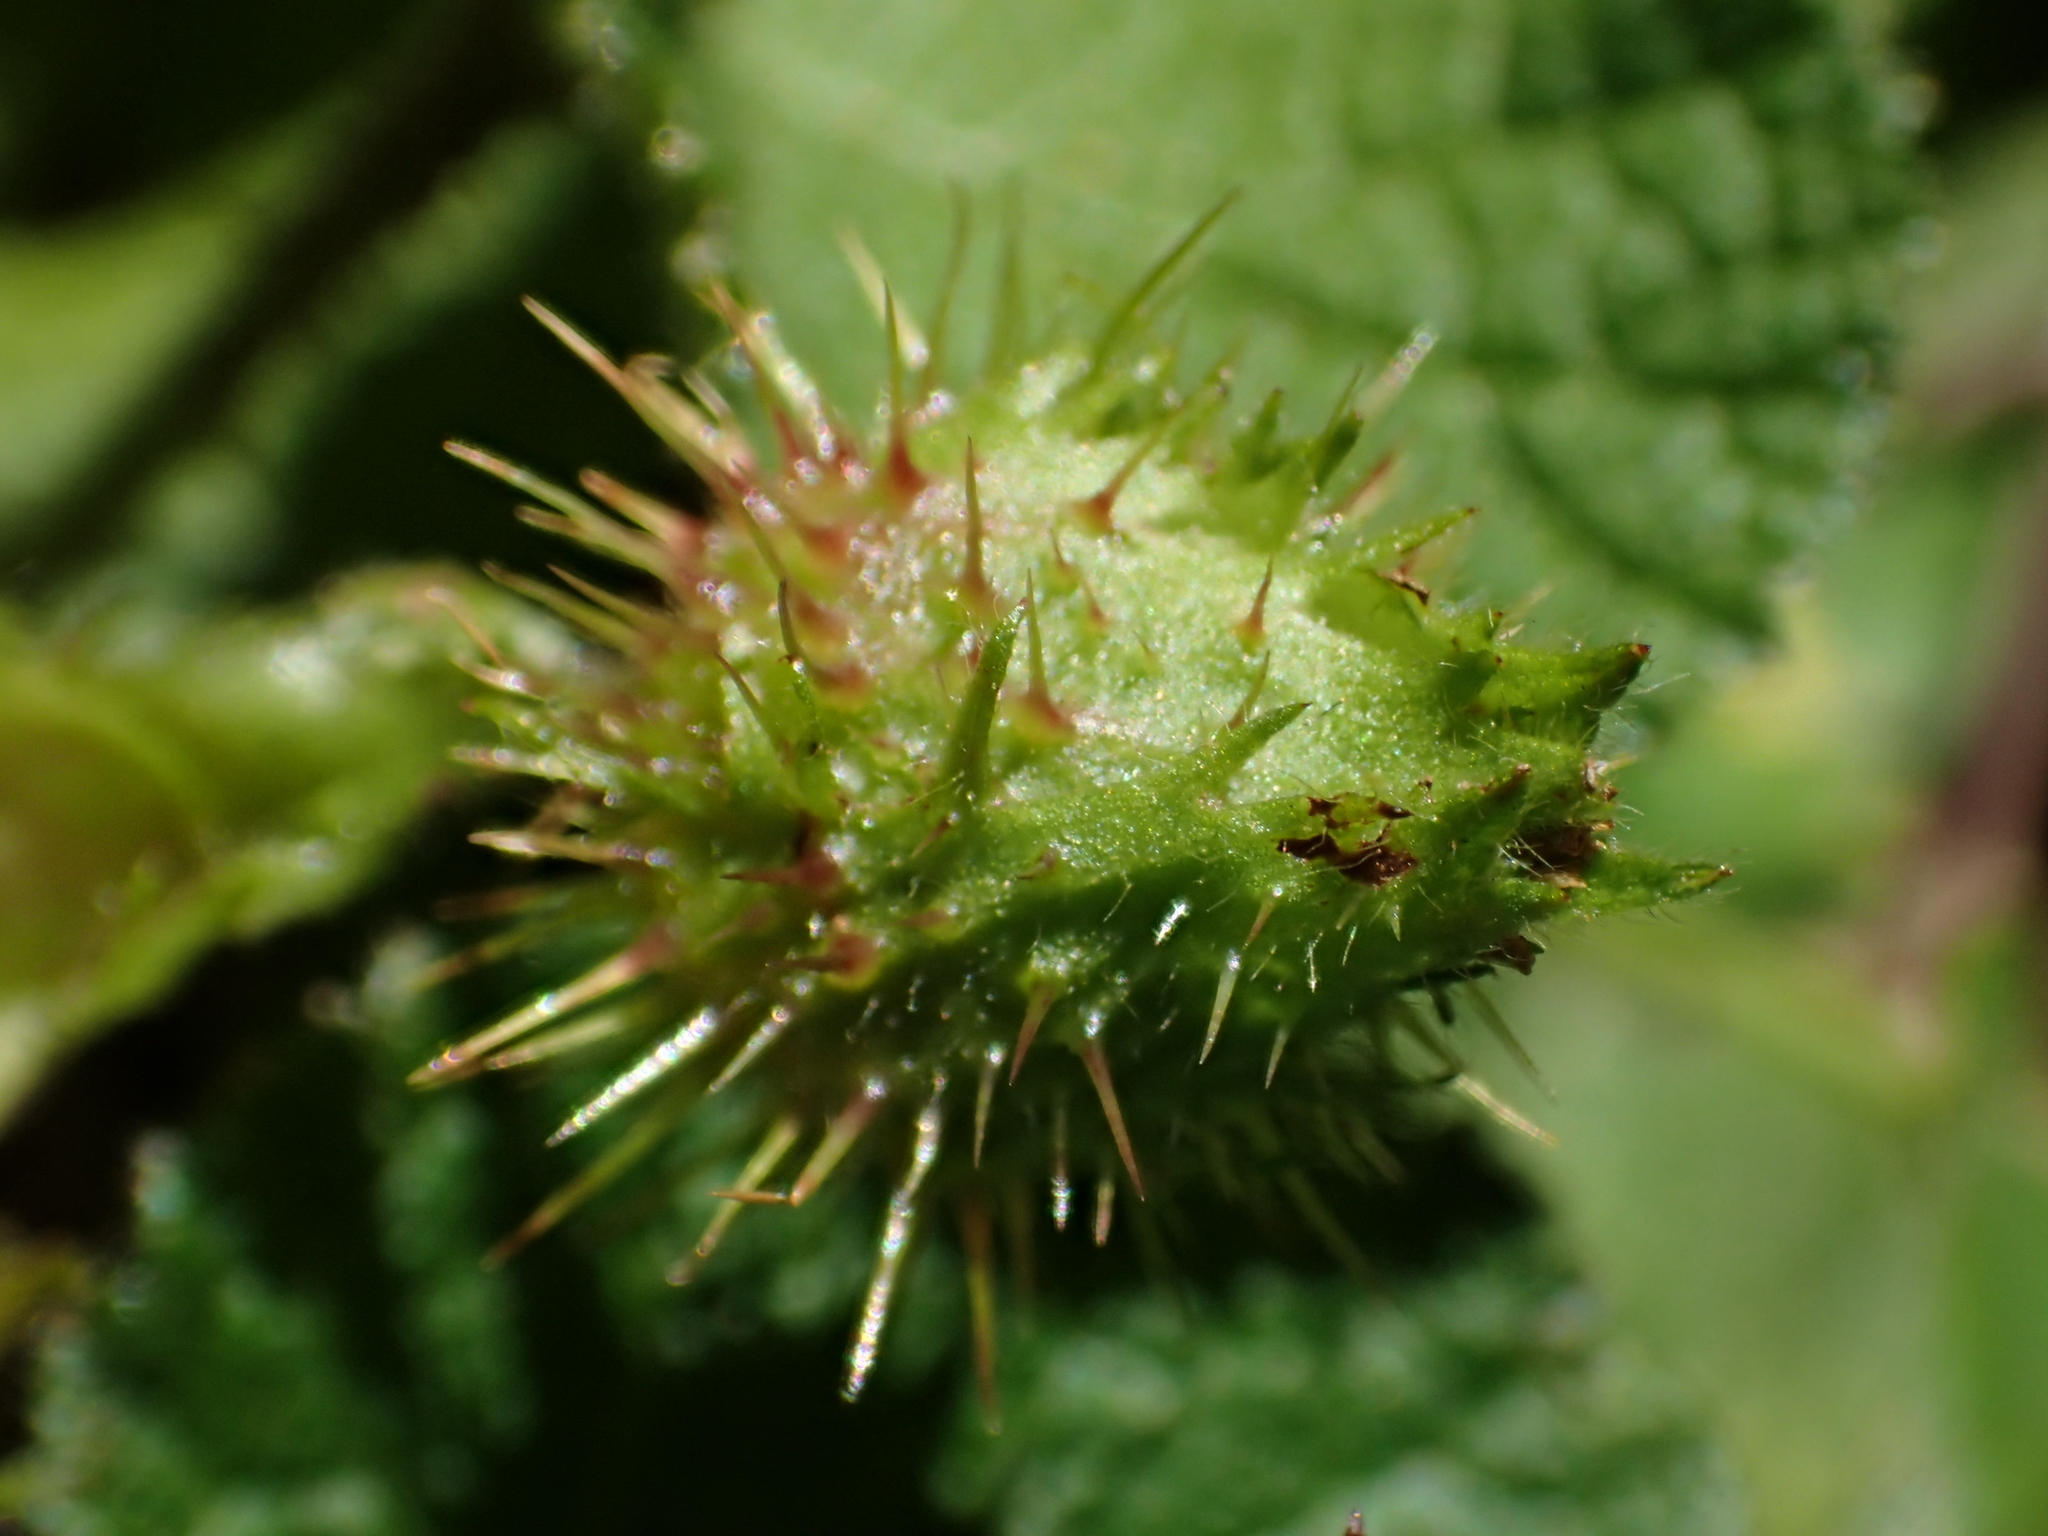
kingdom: Plantae
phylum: Tracheophyta
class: Magnoliopsida
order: Rosales
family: Rosaceae
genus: Rubus
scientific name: Rubus pectinellus
